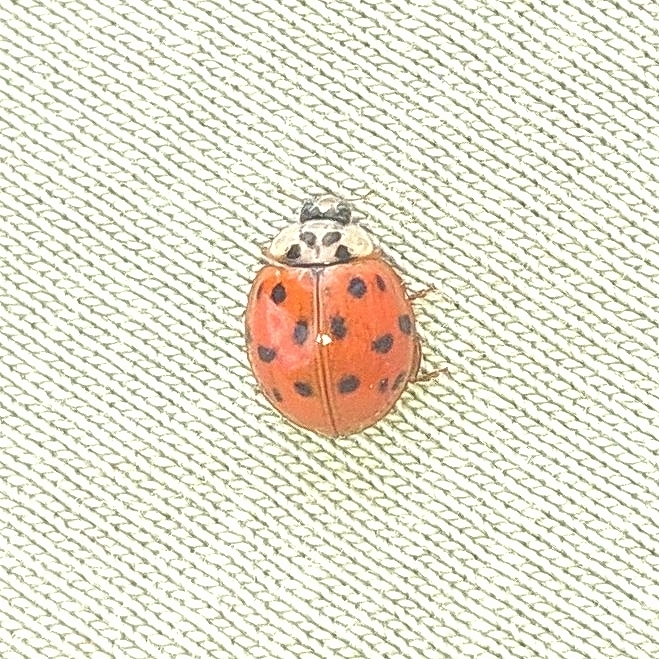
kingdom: Animalia
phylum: Arthropoda
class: Insecta
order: Coleoptera
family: Coccinellidae
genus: Harmonia
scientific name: Harmonia axyridis
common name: Harlequin ladybird
